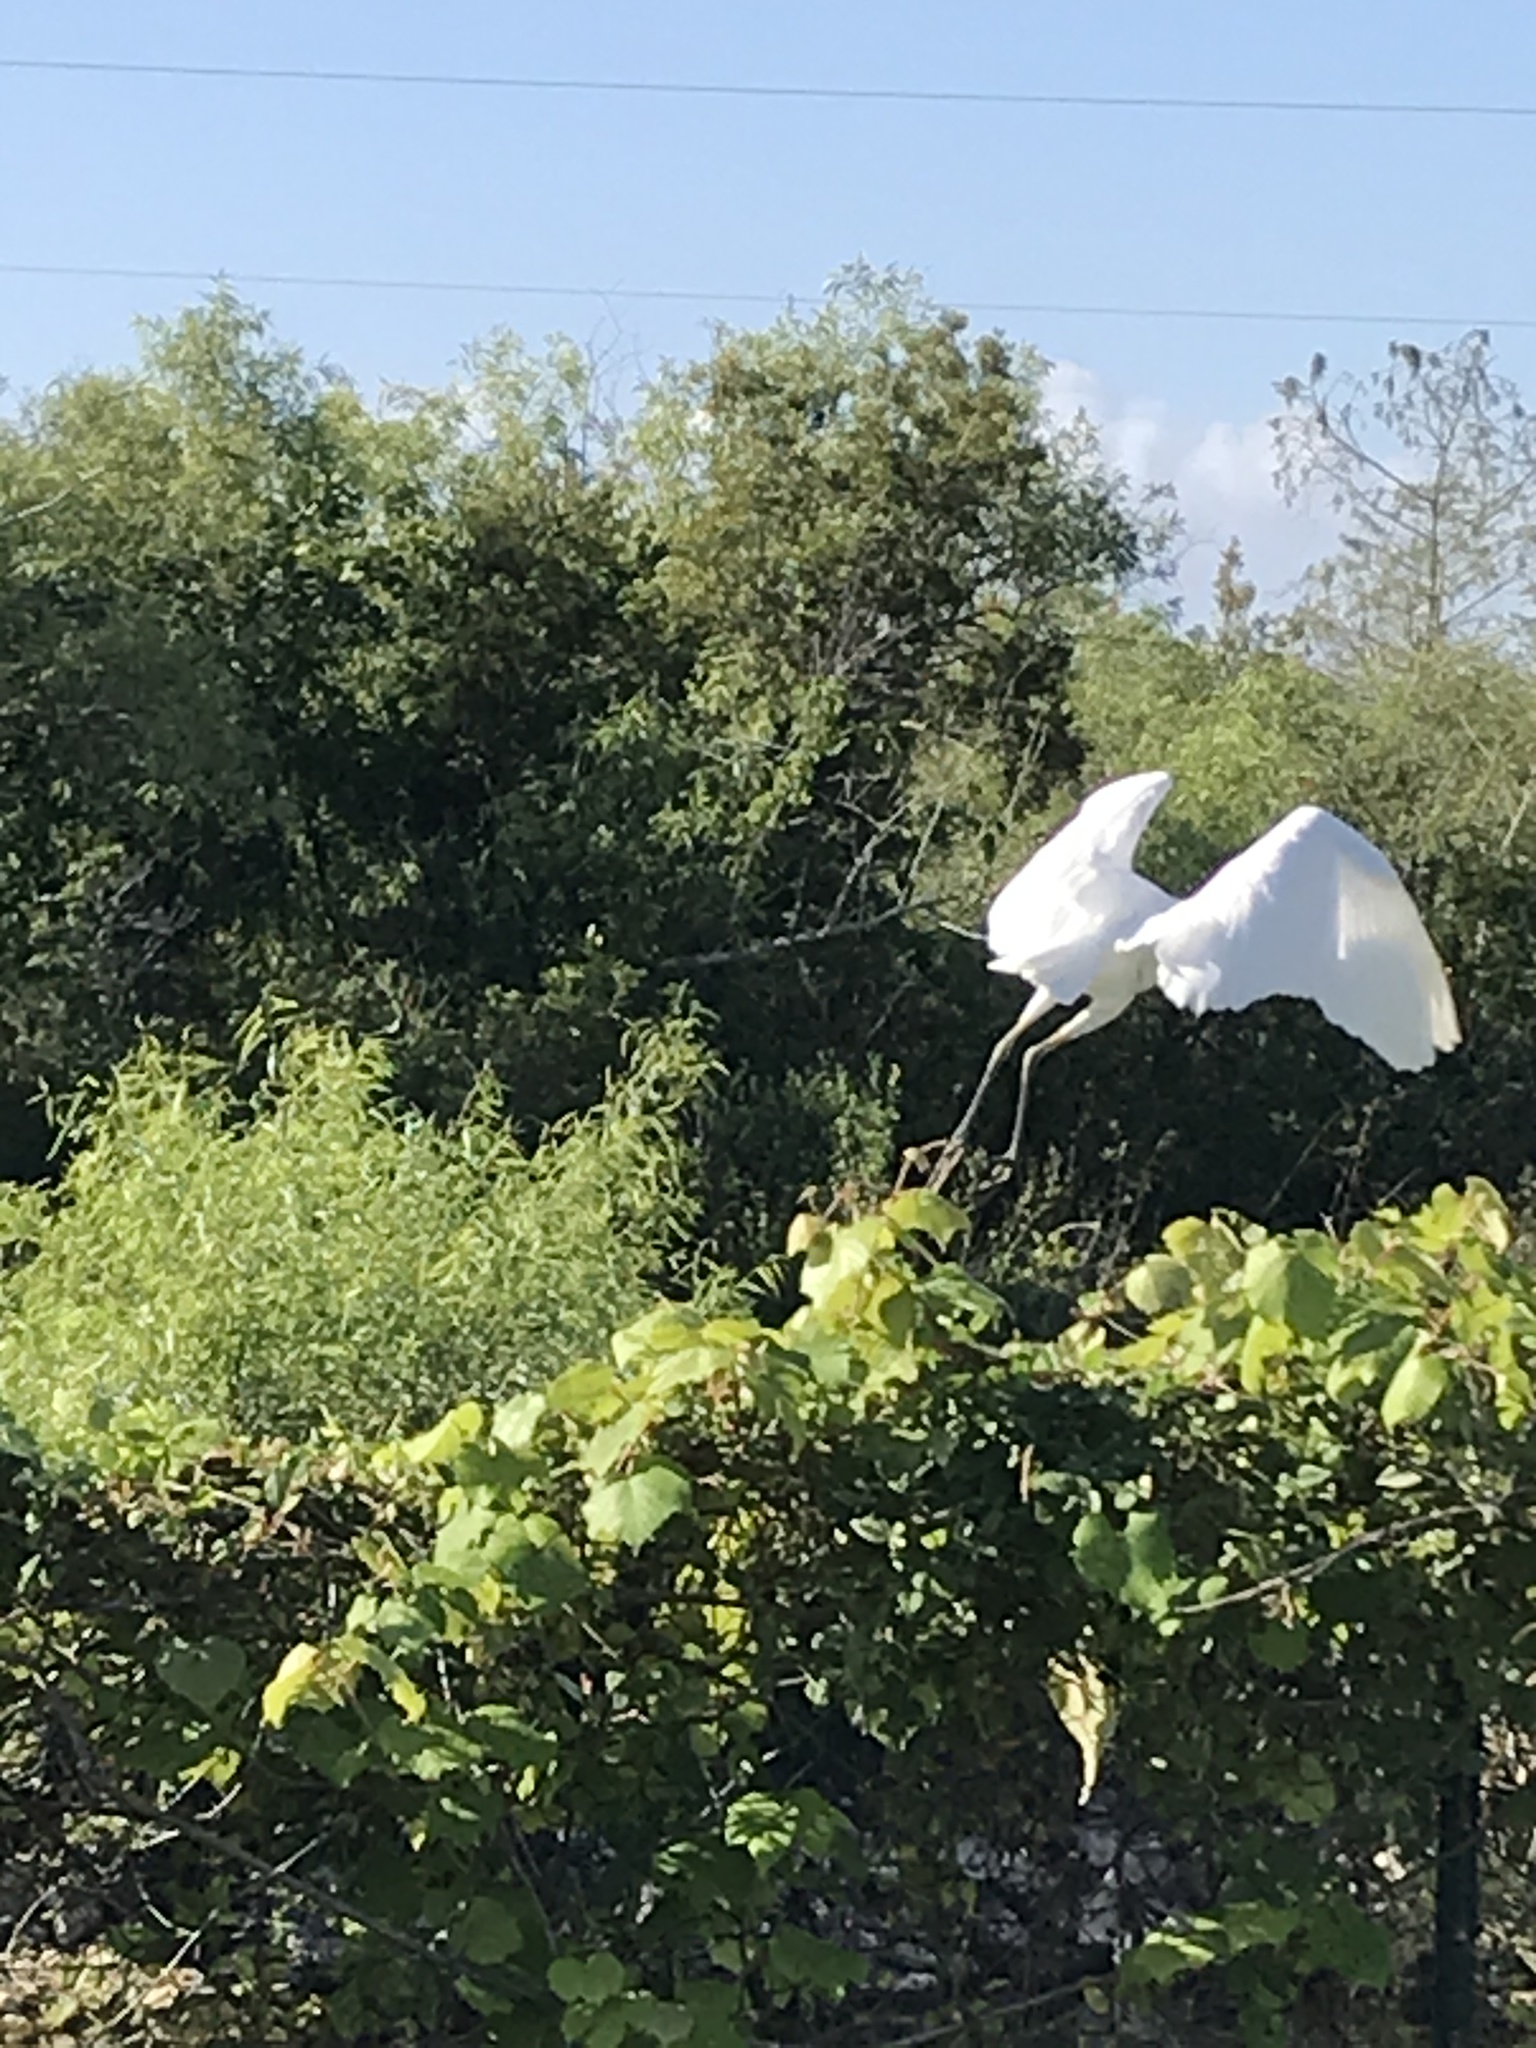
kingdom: Animalia
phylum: Chordata
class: Aves
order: Pelecaniformes
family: Ardeidae
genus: Ardea
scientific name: Ardea alba
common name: Great egret
